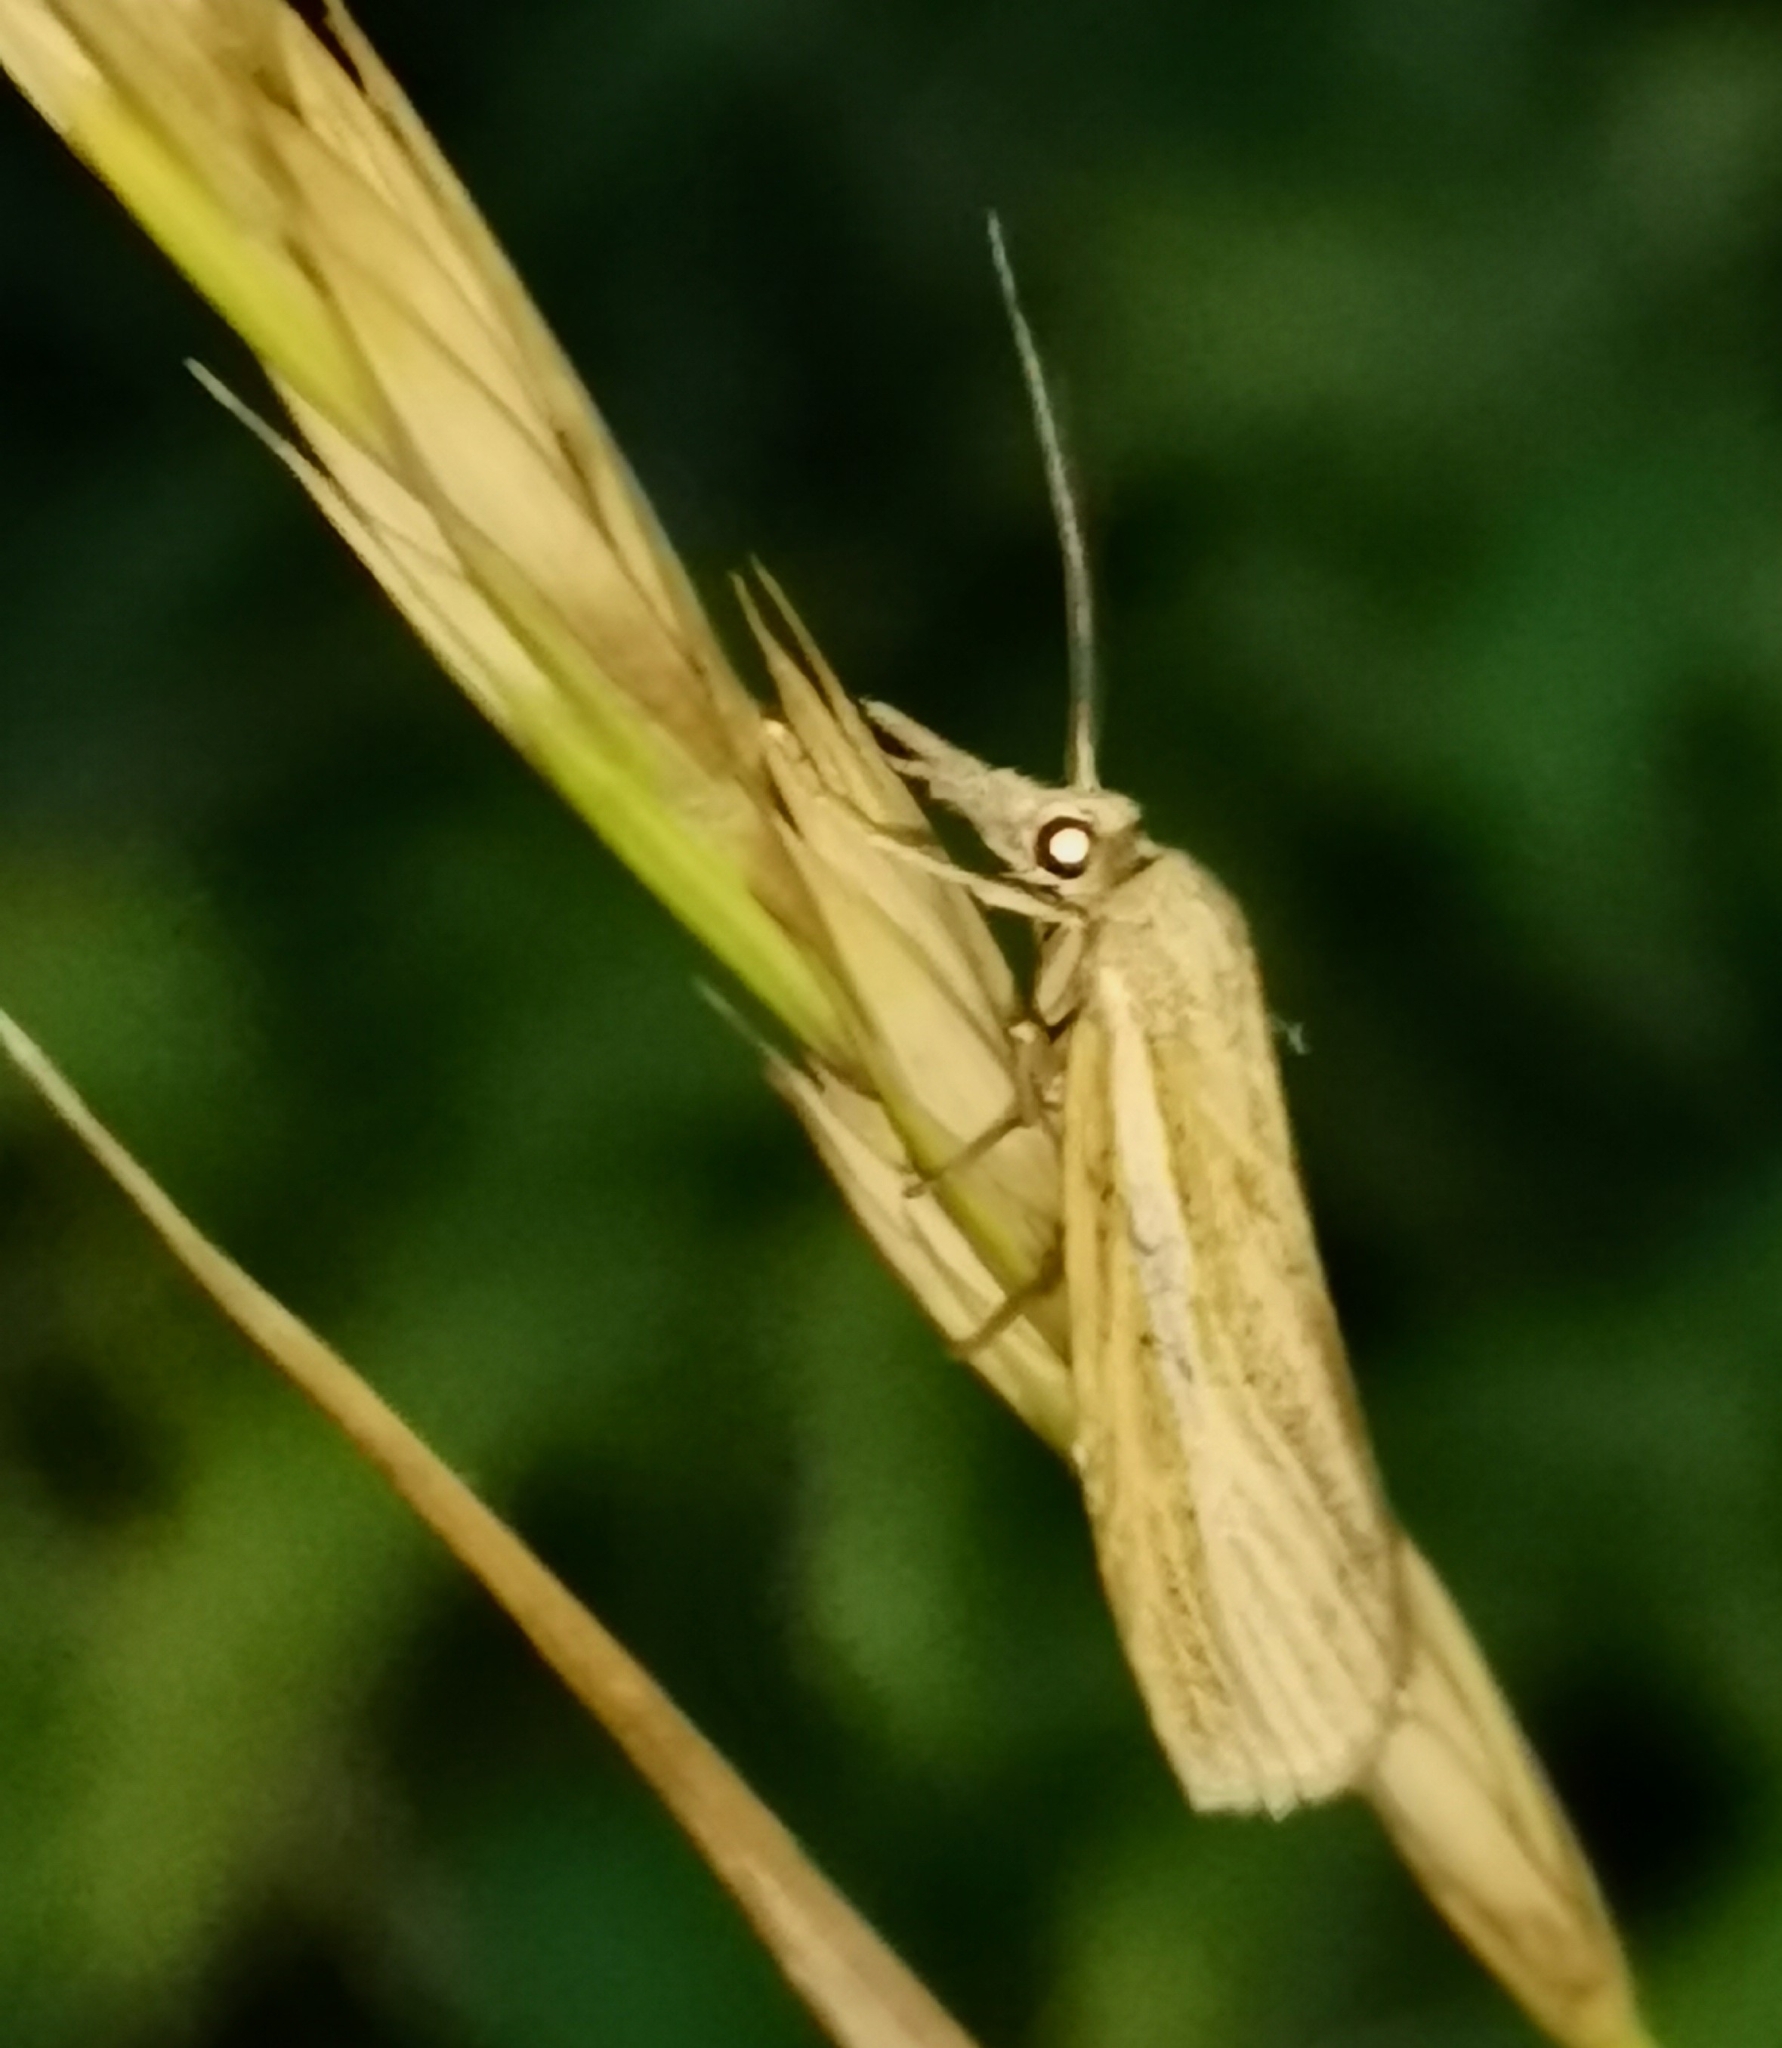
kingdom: Animalia
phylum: Arthropoda
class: Insecta
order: Lepidoptera
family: Crambidae
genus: Agriphila
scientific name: Agriphila tristellus
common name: Common grass-veneer
